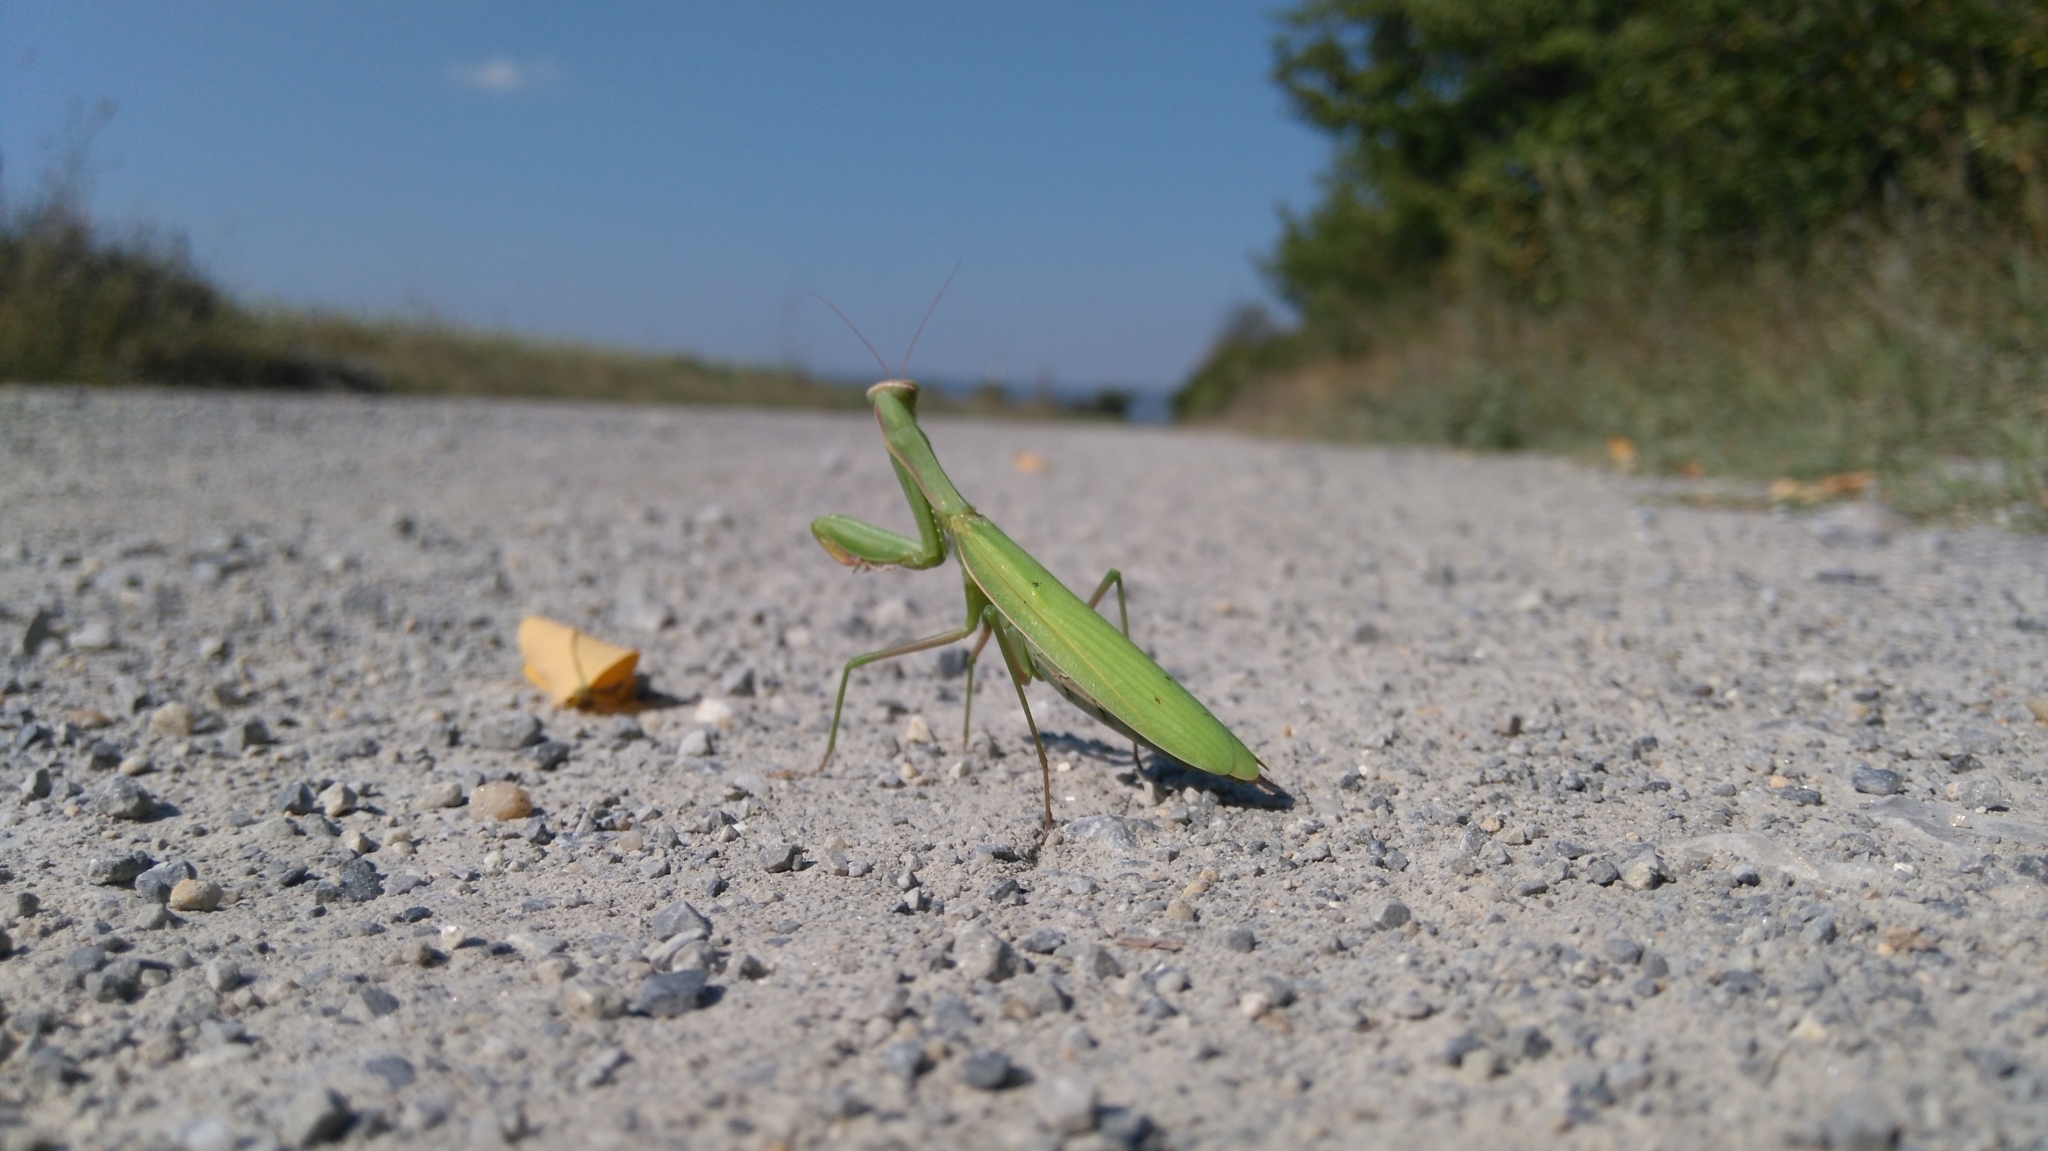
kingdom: Animalia
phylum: Arthropoda
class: Insecta
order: Mantodea
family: Mantidae
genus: Mantis
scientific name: Mantis religiosa
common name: Praying mantis
